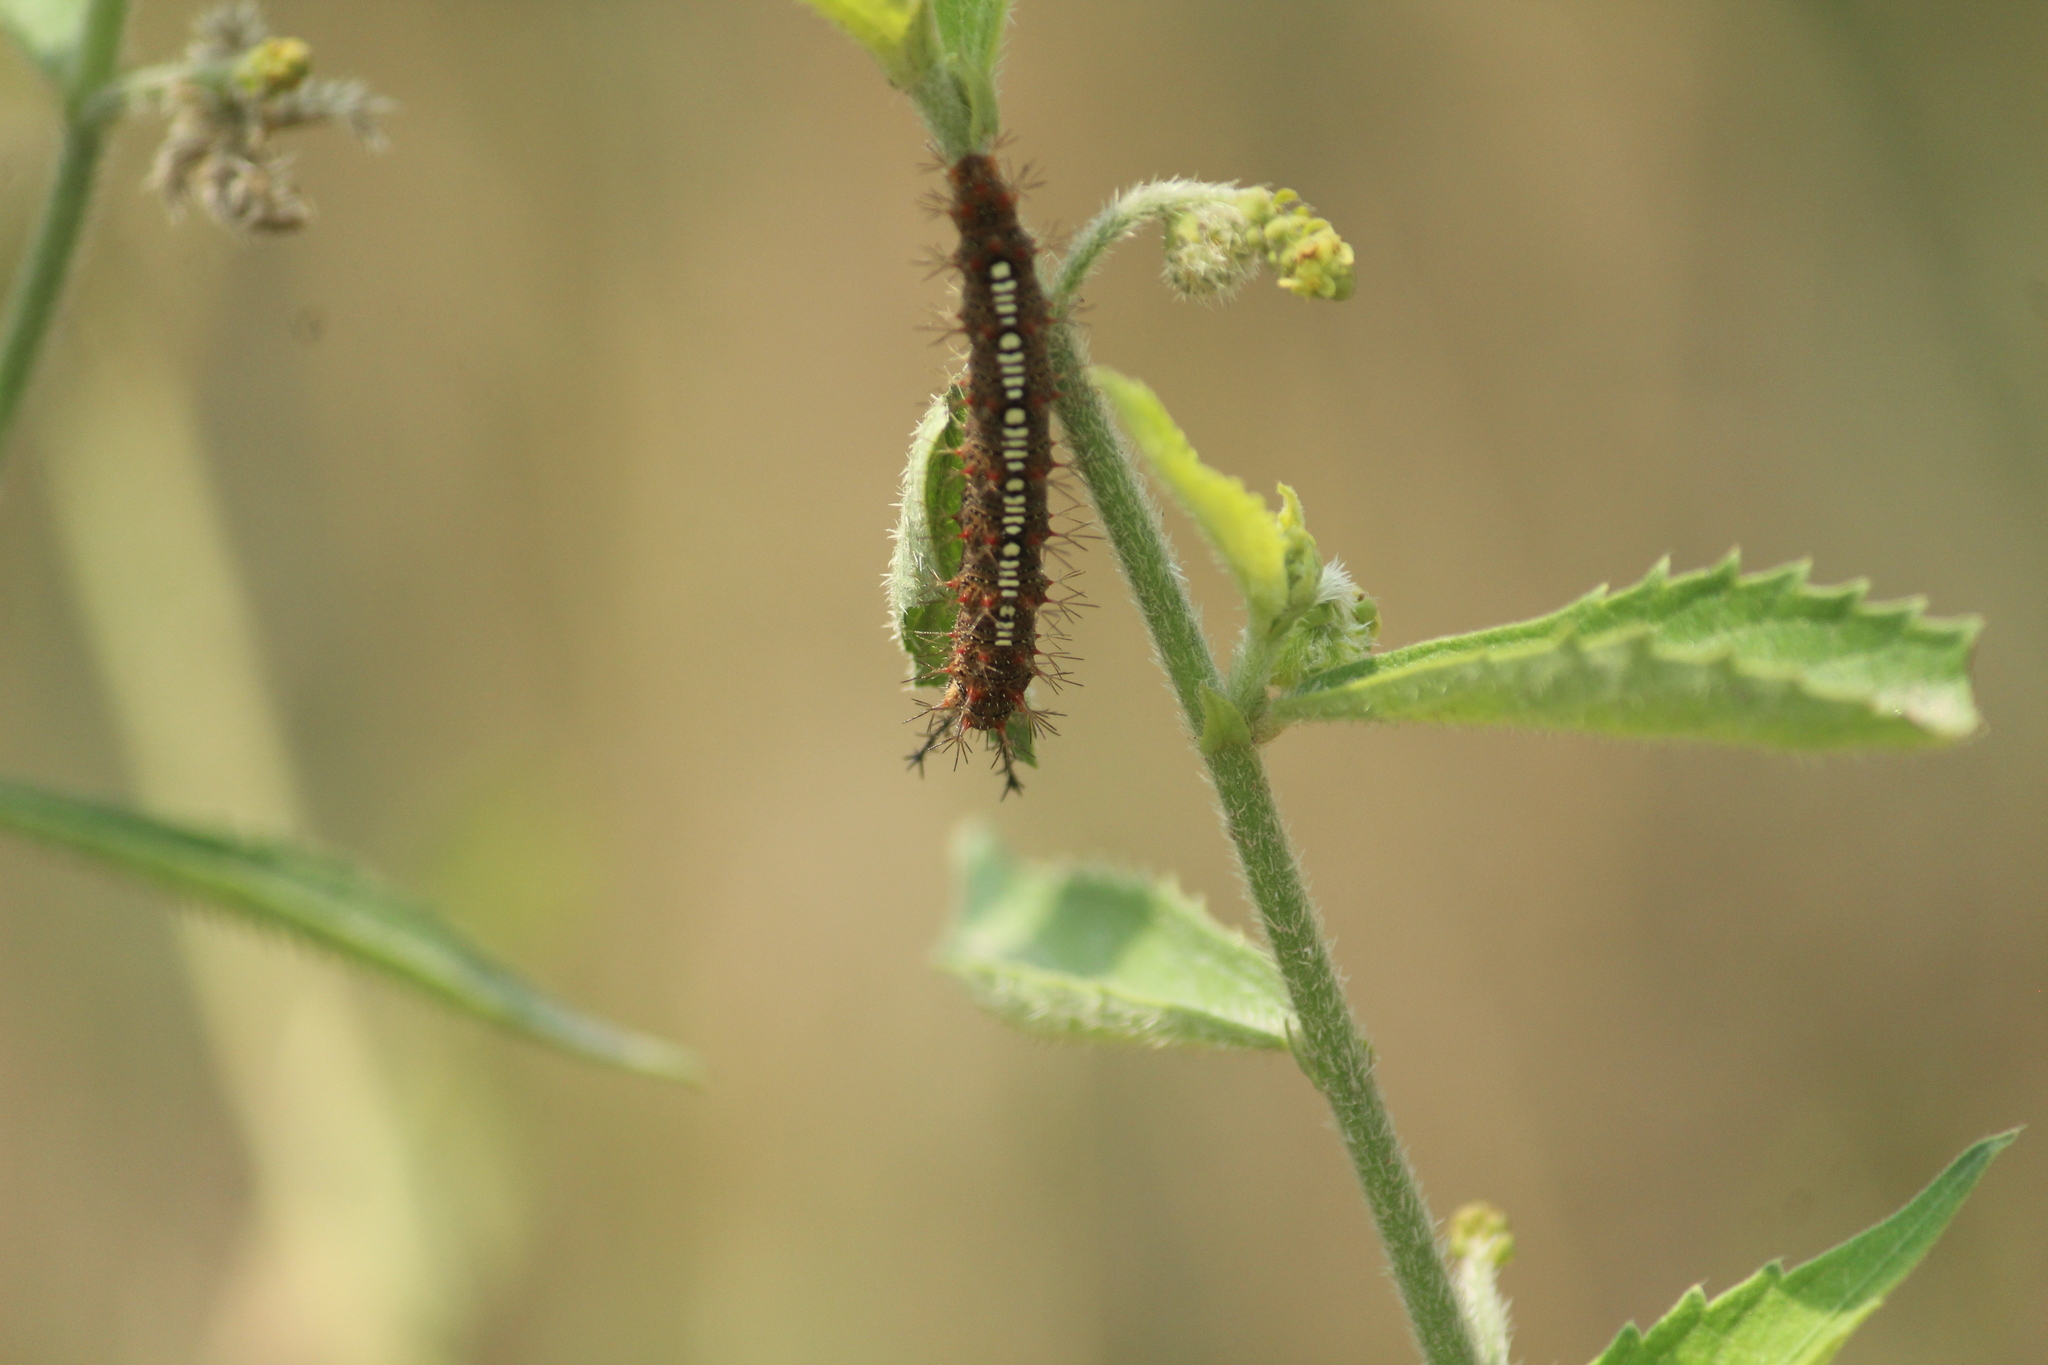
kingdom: Animalia
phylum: Arthropoda
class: Insecta
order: Lepidoptera
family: Nymphalidae
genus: Ariadne
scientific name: Ariadne ariadne
